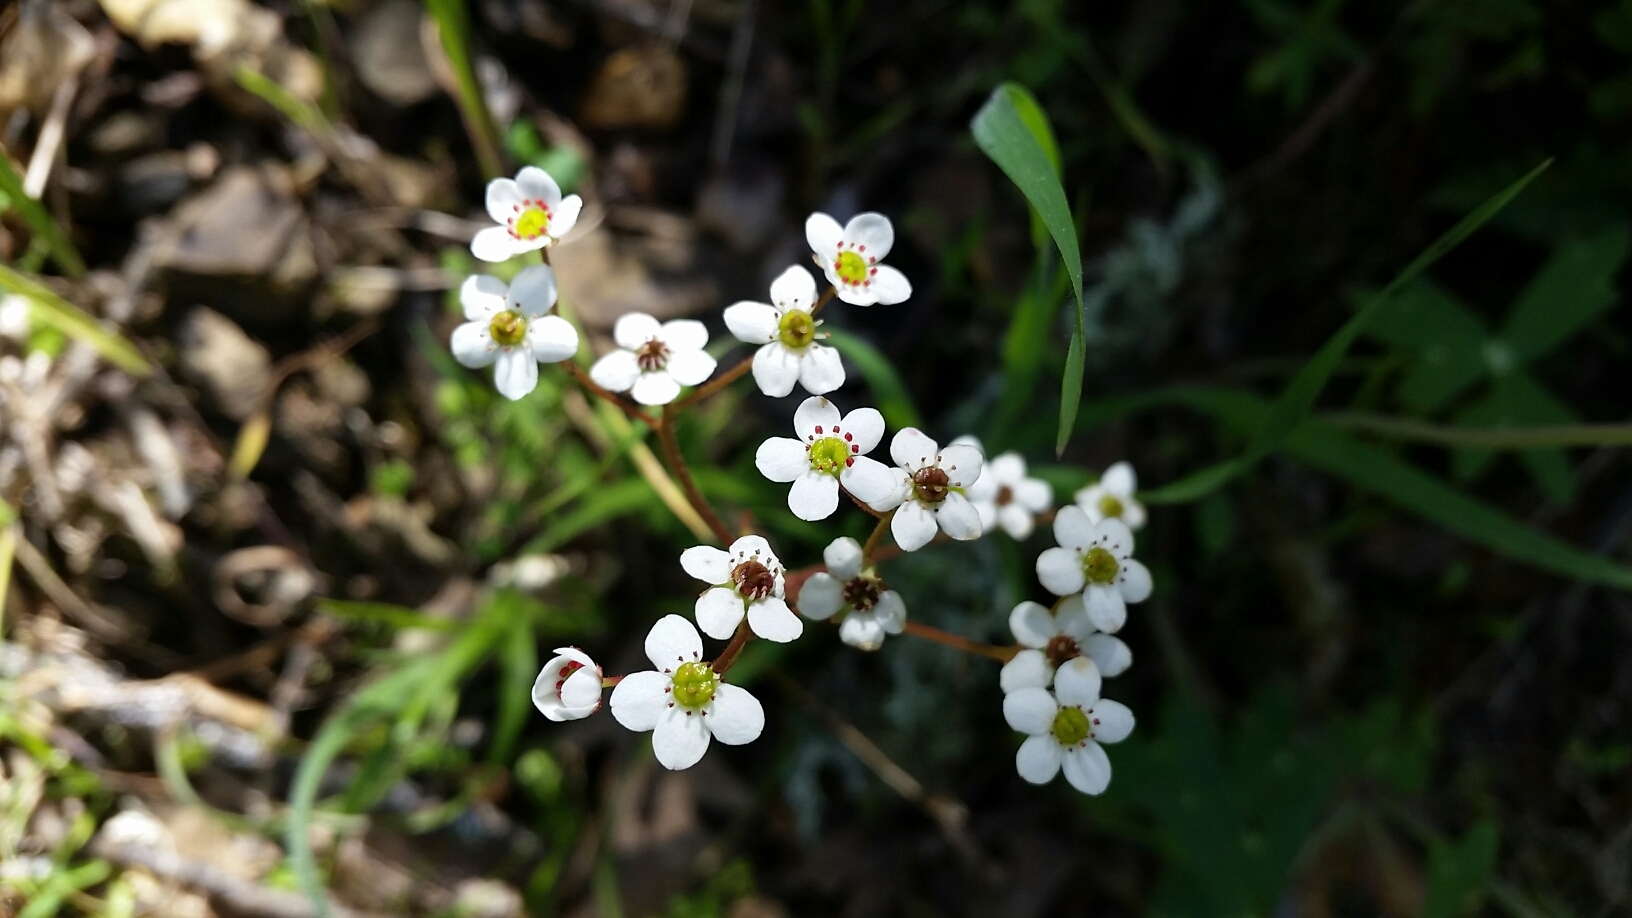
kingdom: Plantae
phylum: Tracheophyta
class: Magnoliopsida
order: Saxifragales
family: Saxifragaceae
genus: Micranthes
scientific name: Micranthes californica
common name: California saxifrage
